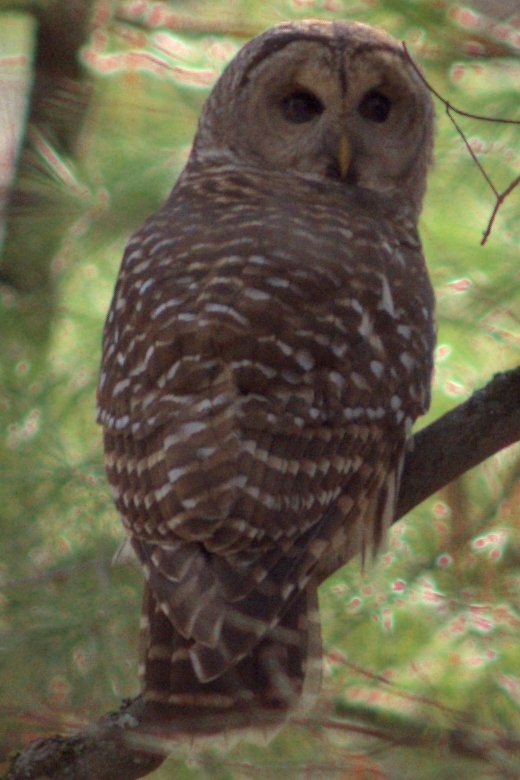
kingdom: Animalia
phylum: Chordata
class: Aves
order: Strigiformes
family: Strigidae
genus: Strix
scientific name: Strix varia
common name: Barred owl
